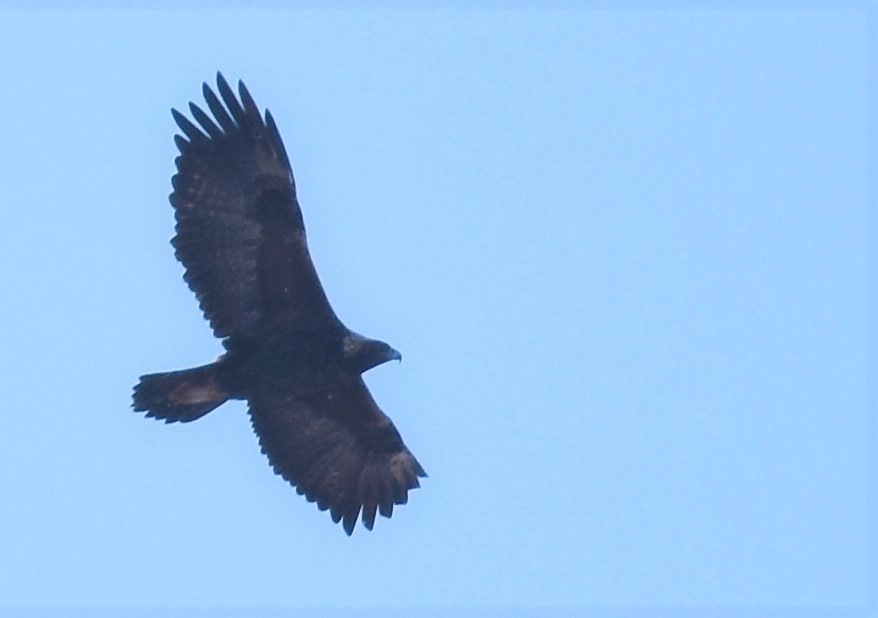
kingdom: Animalia
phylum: Chordata
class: Aves
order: Accipitriformes
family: Accipitridae
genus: Aquila
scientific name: Aquila chrysaetos
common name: Golden eagle
